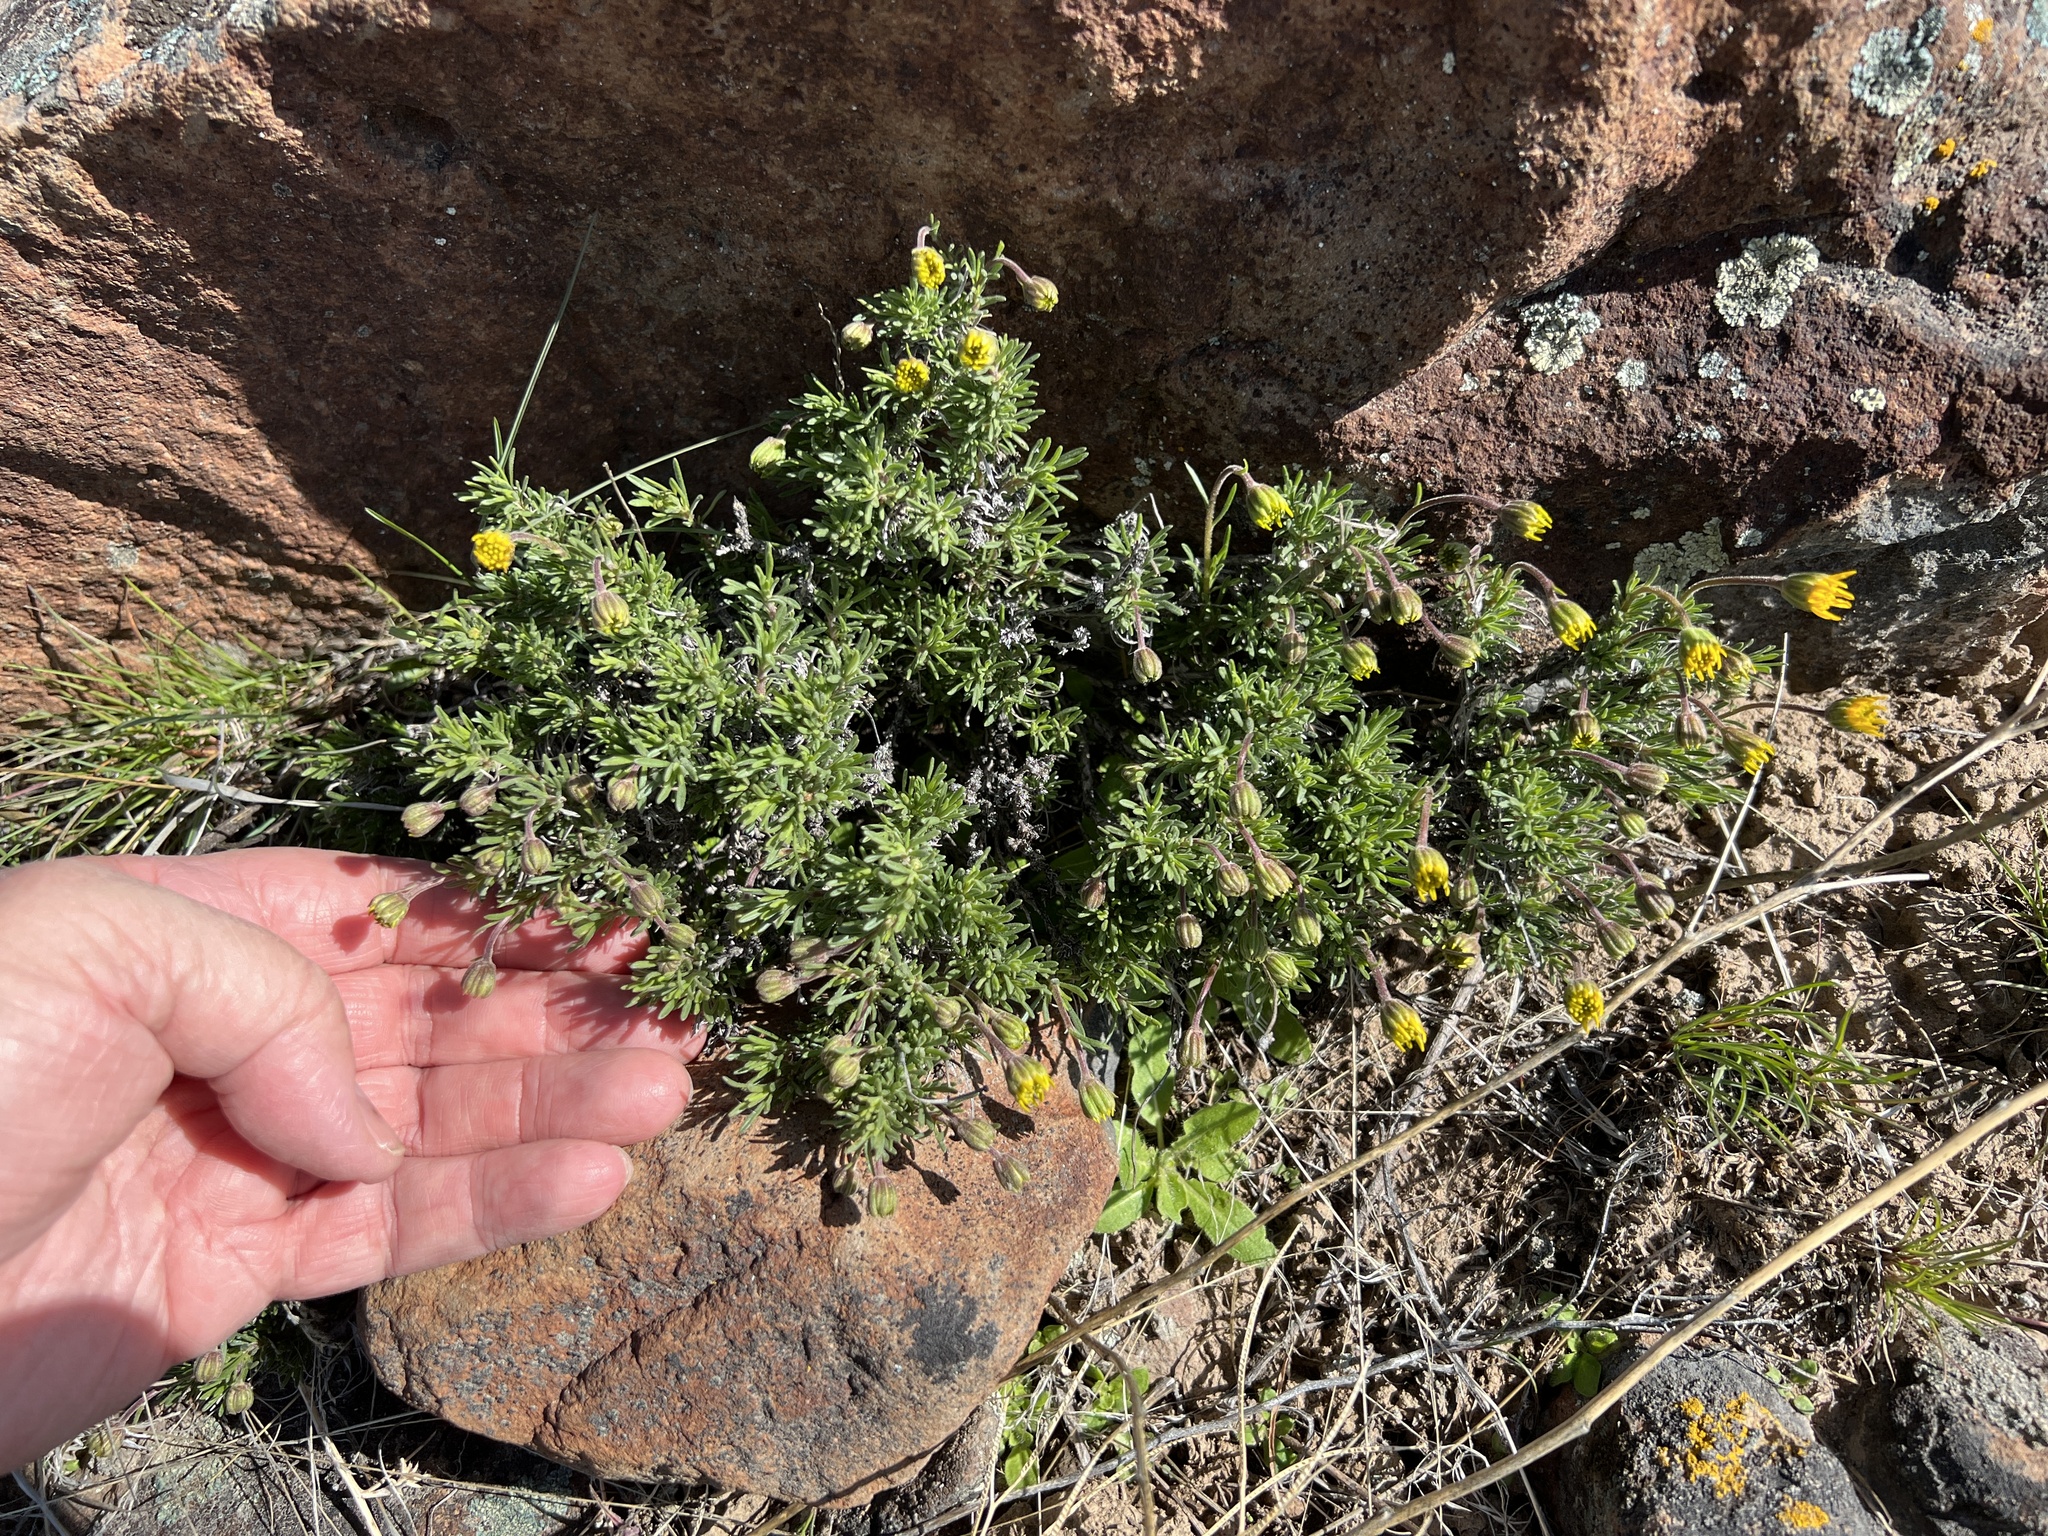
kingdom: Plantae
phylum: Tracheophyta
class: Magnoliopsida
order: Asterales
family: Asteraceae
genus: Nestotus
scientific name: Nestotus stenophyllus
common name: Narrow-leaf mock goldenweed
